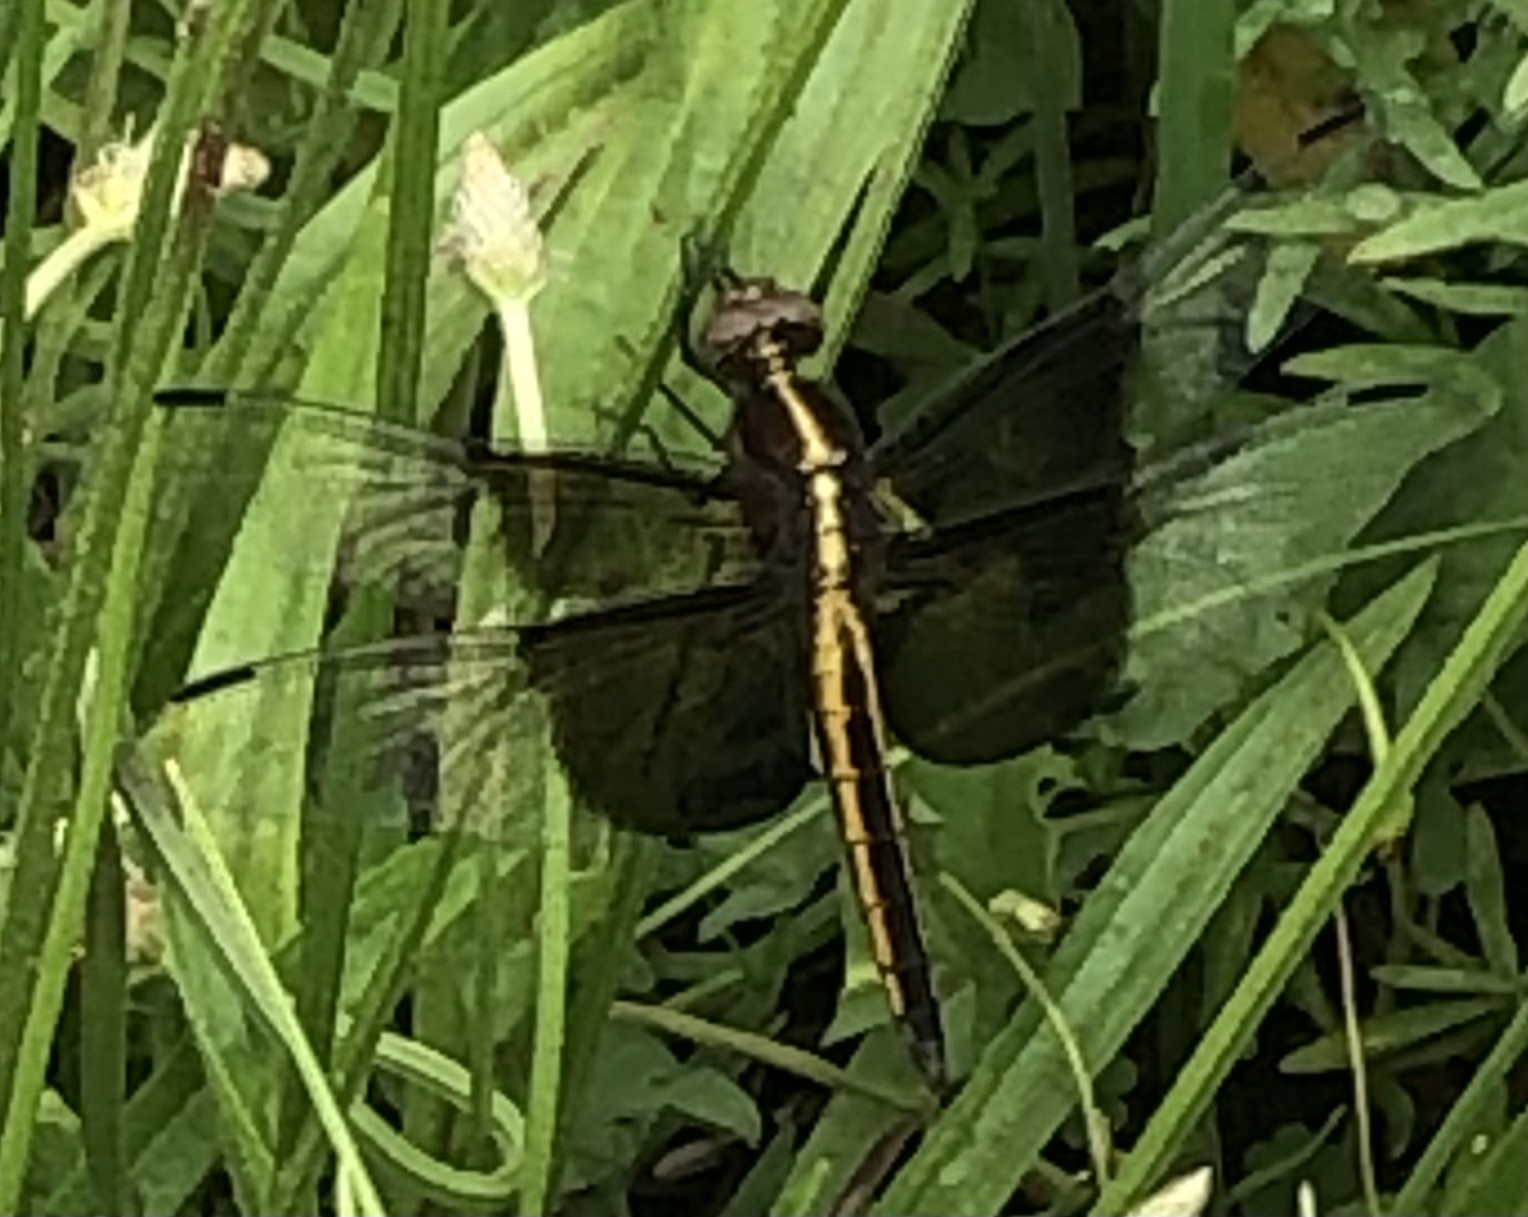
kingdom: Animalia
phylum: Arthropoda
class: Insecta
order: Odonata
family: Libellulidae
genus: Libellula
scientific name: Libellula luctuosa
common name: Widow skimmer
